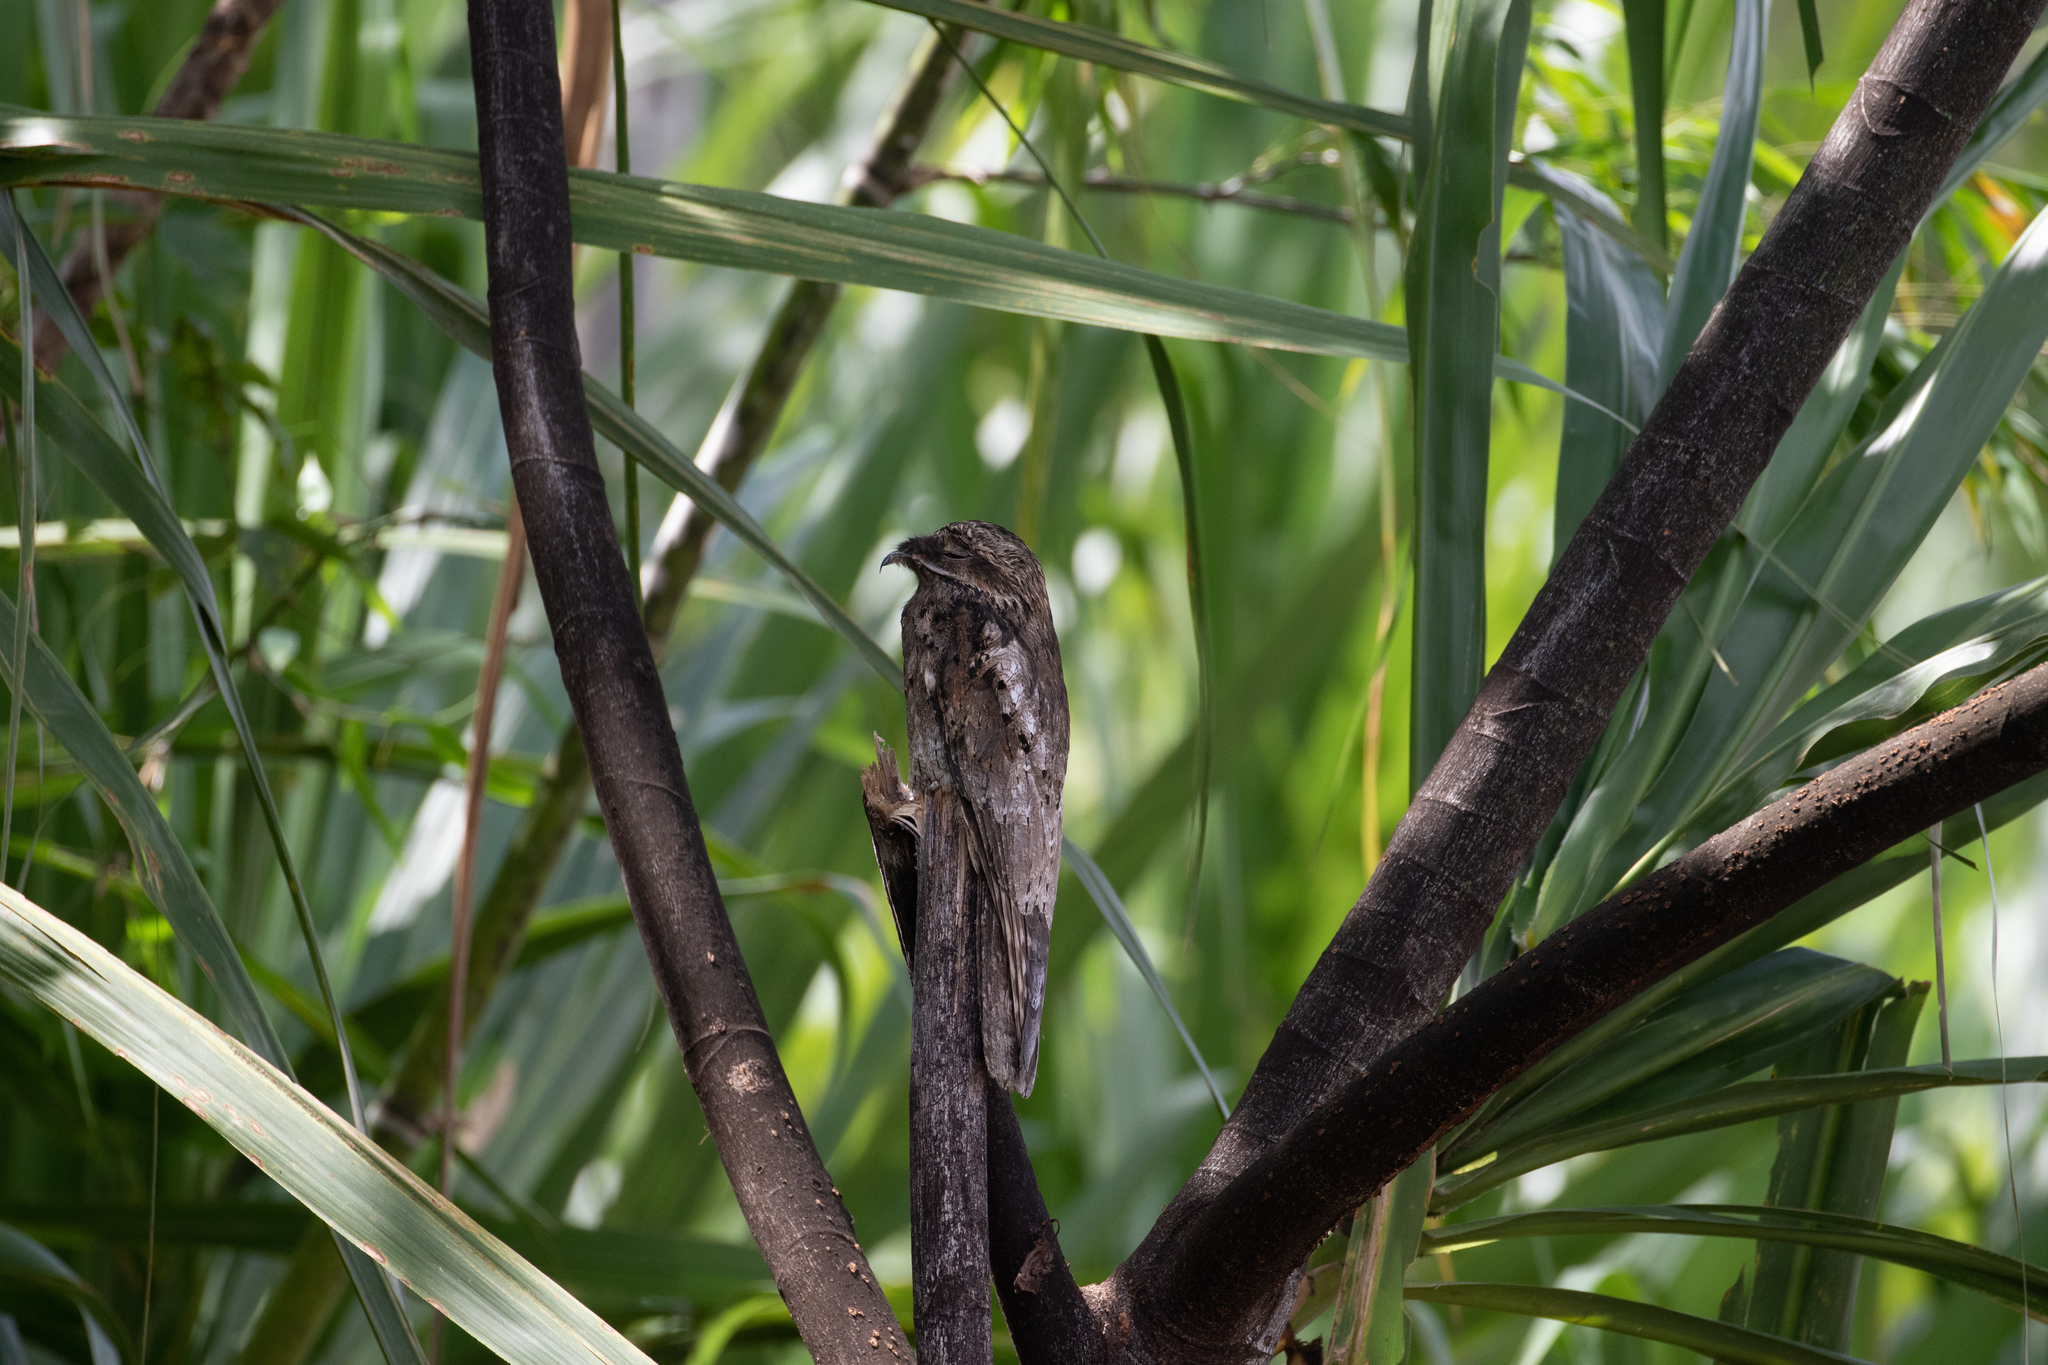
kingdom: Animalia
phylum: Chordata
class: Aves
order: Nyctibiiformes
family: Nyctibiidae
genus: Nyctibius
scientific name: Nyctibius griseus
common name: Common potoo
